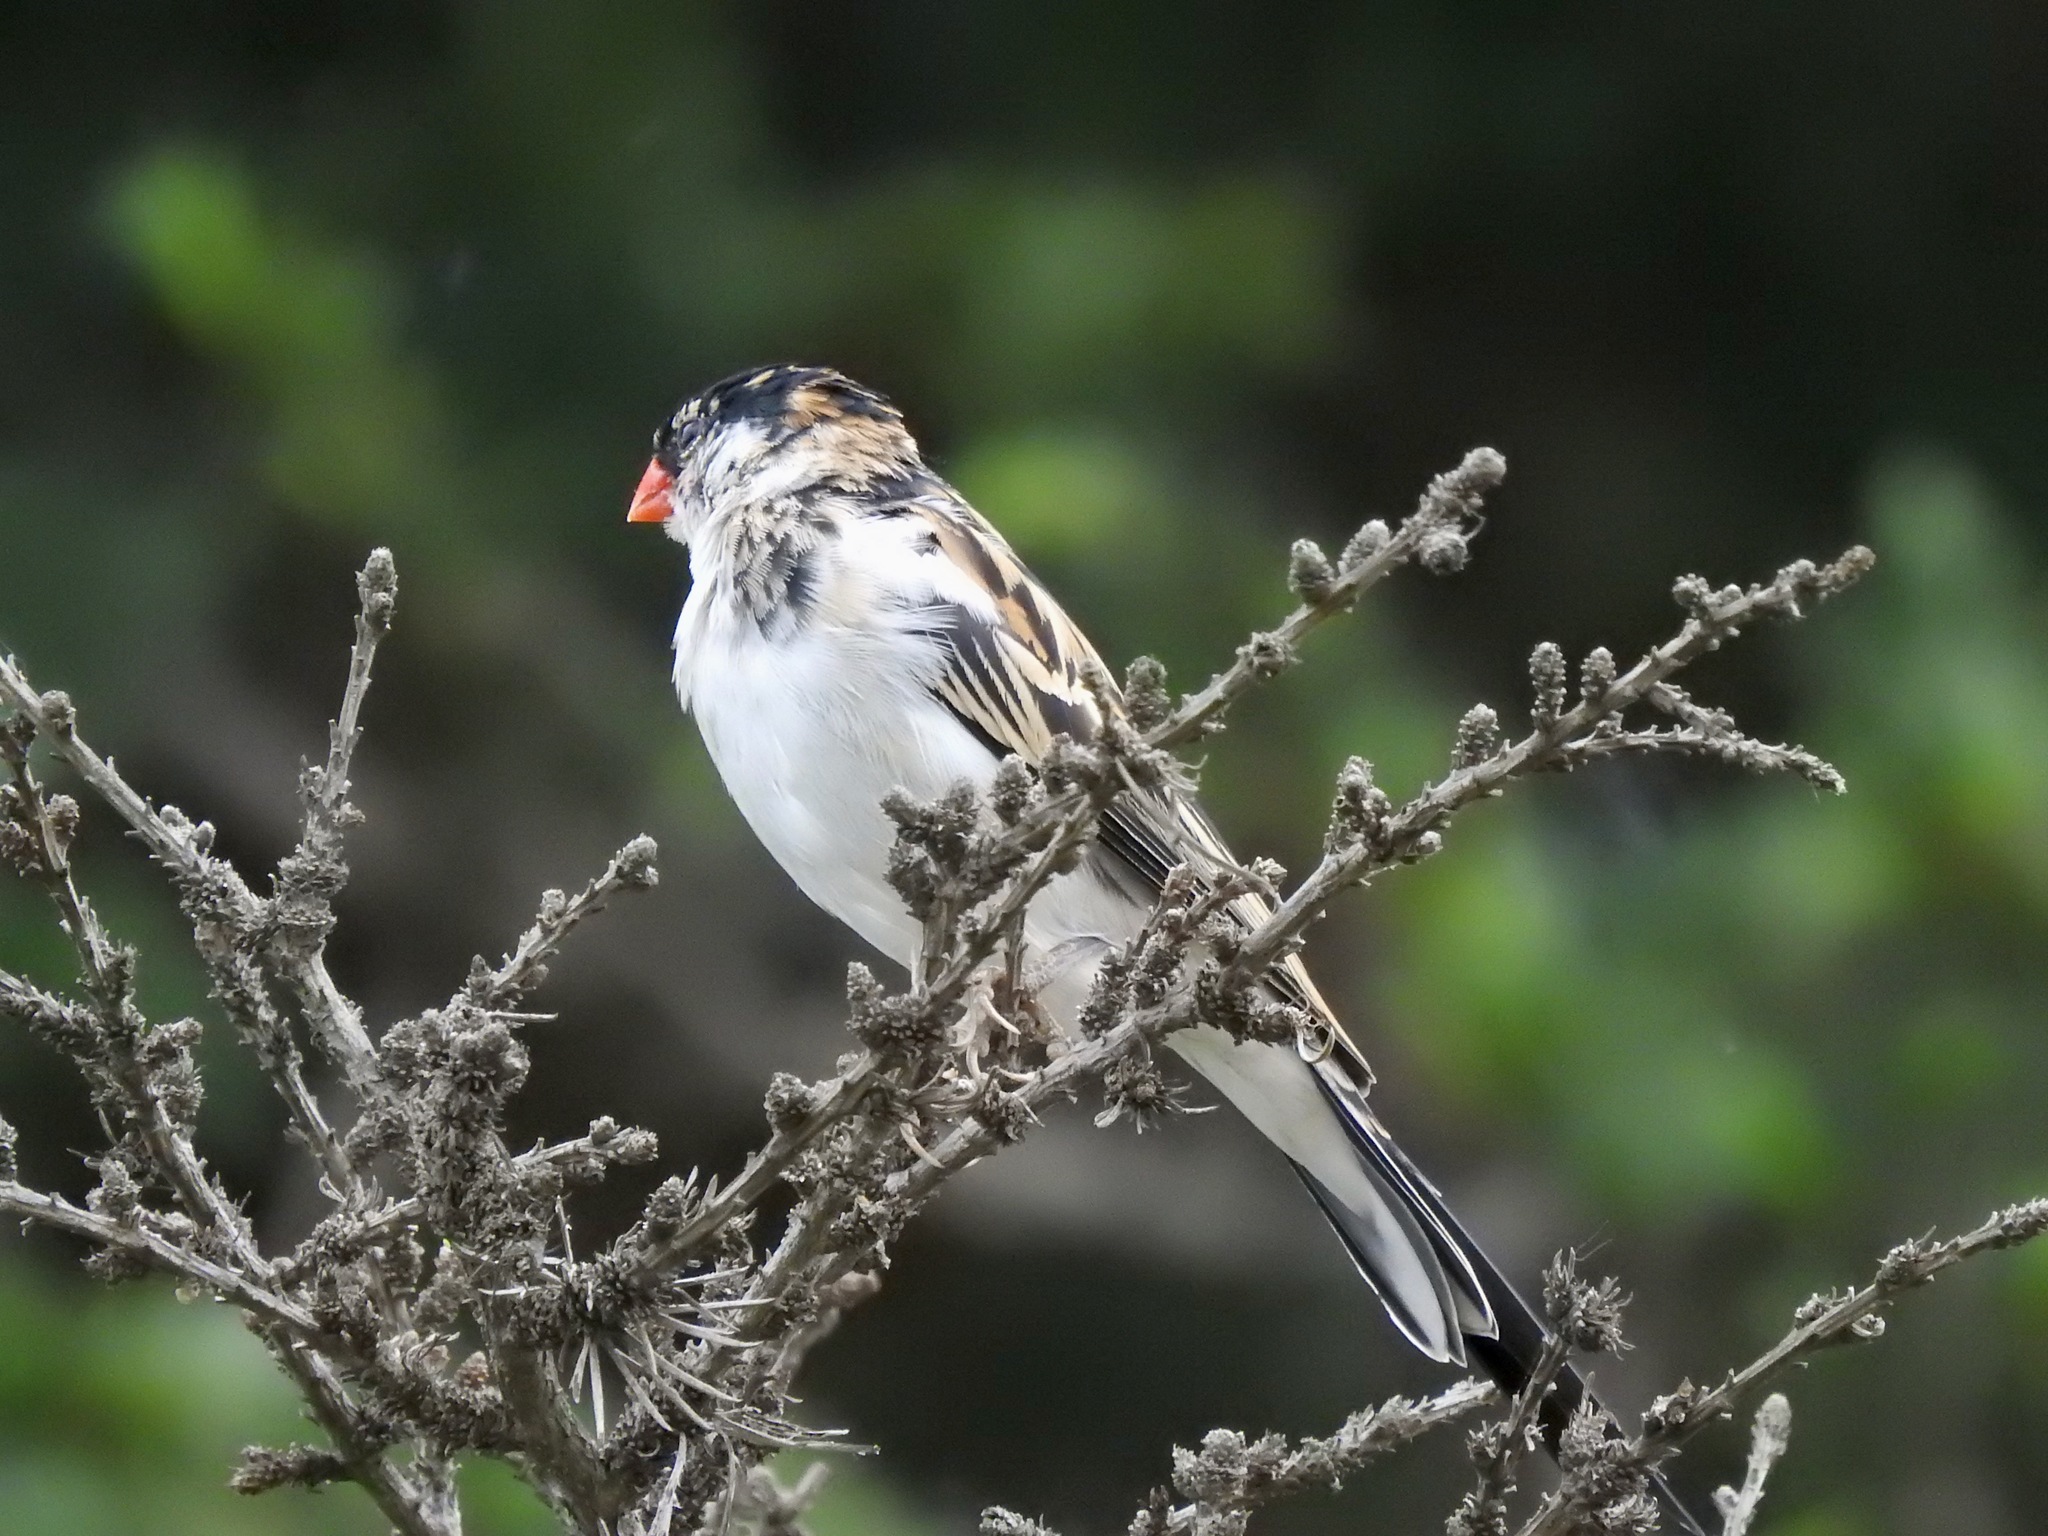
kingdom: Animalia
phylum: Chordata
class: Aves
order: Passeriformes
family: Viduidae
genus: Vidua
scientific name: Vidua macroura
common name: Pin-tailed whydah
